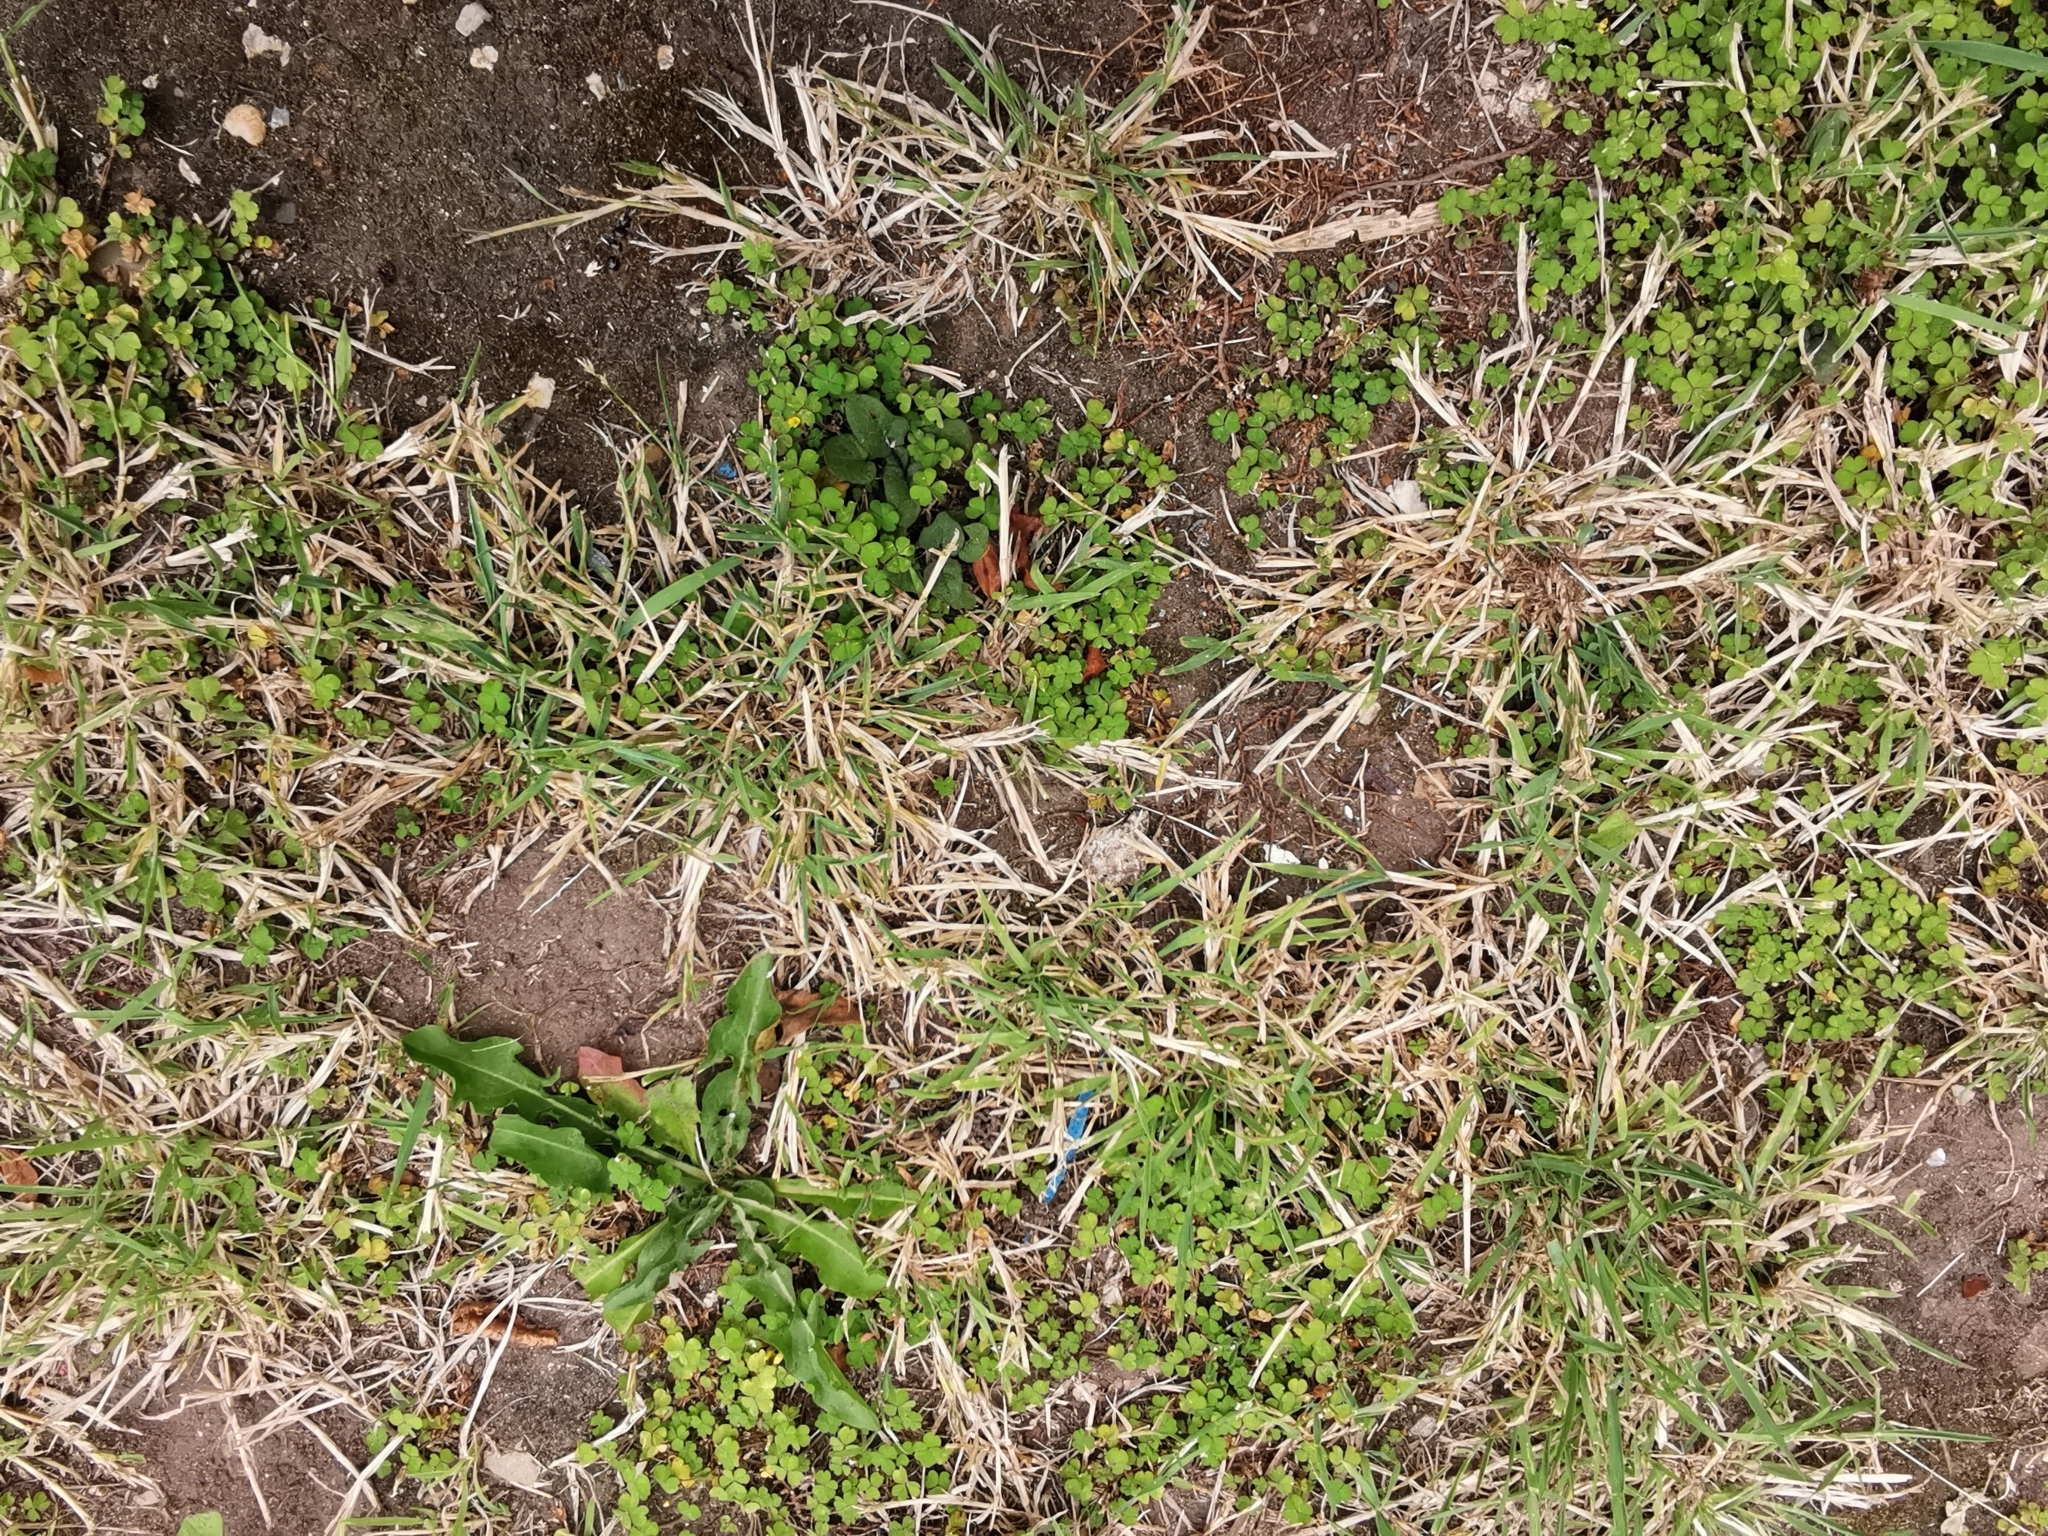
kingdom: Plantae
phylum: Tracheophyta
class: Magnoliopsida
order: Oxalidales
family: Oxalidaceae
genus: Oxalis
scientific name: Oxalis exilis
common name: Least yellow-sorrel
